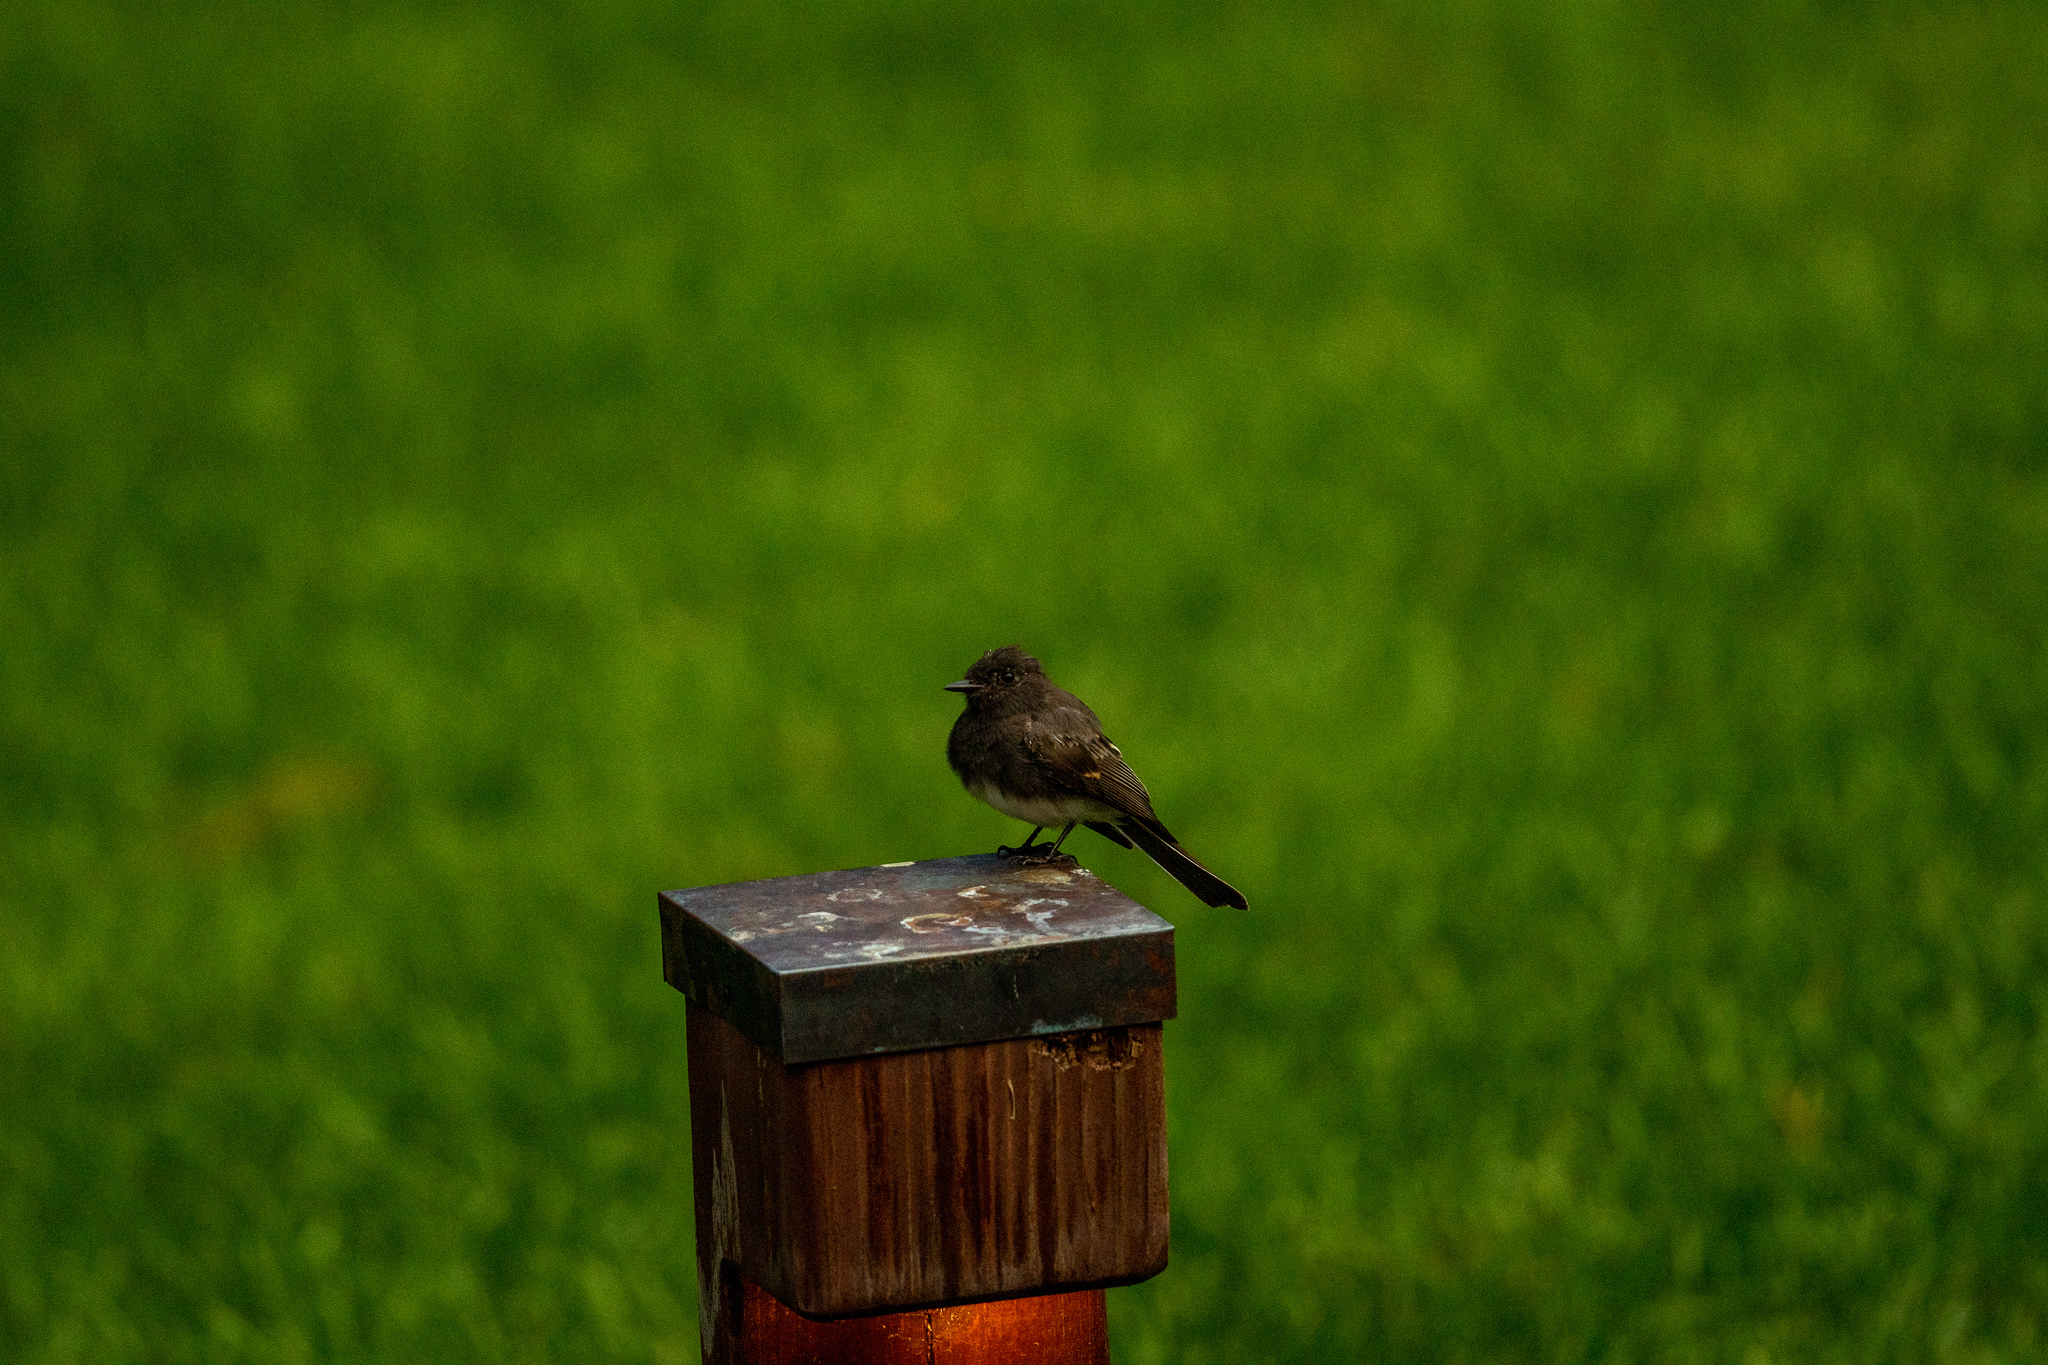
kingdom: Animalia
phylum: Chordata
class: Aves
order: Passeriformes
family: Tyrannidae
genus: Sayornis
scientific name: Sayornis nigricans
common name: Black phoebe
